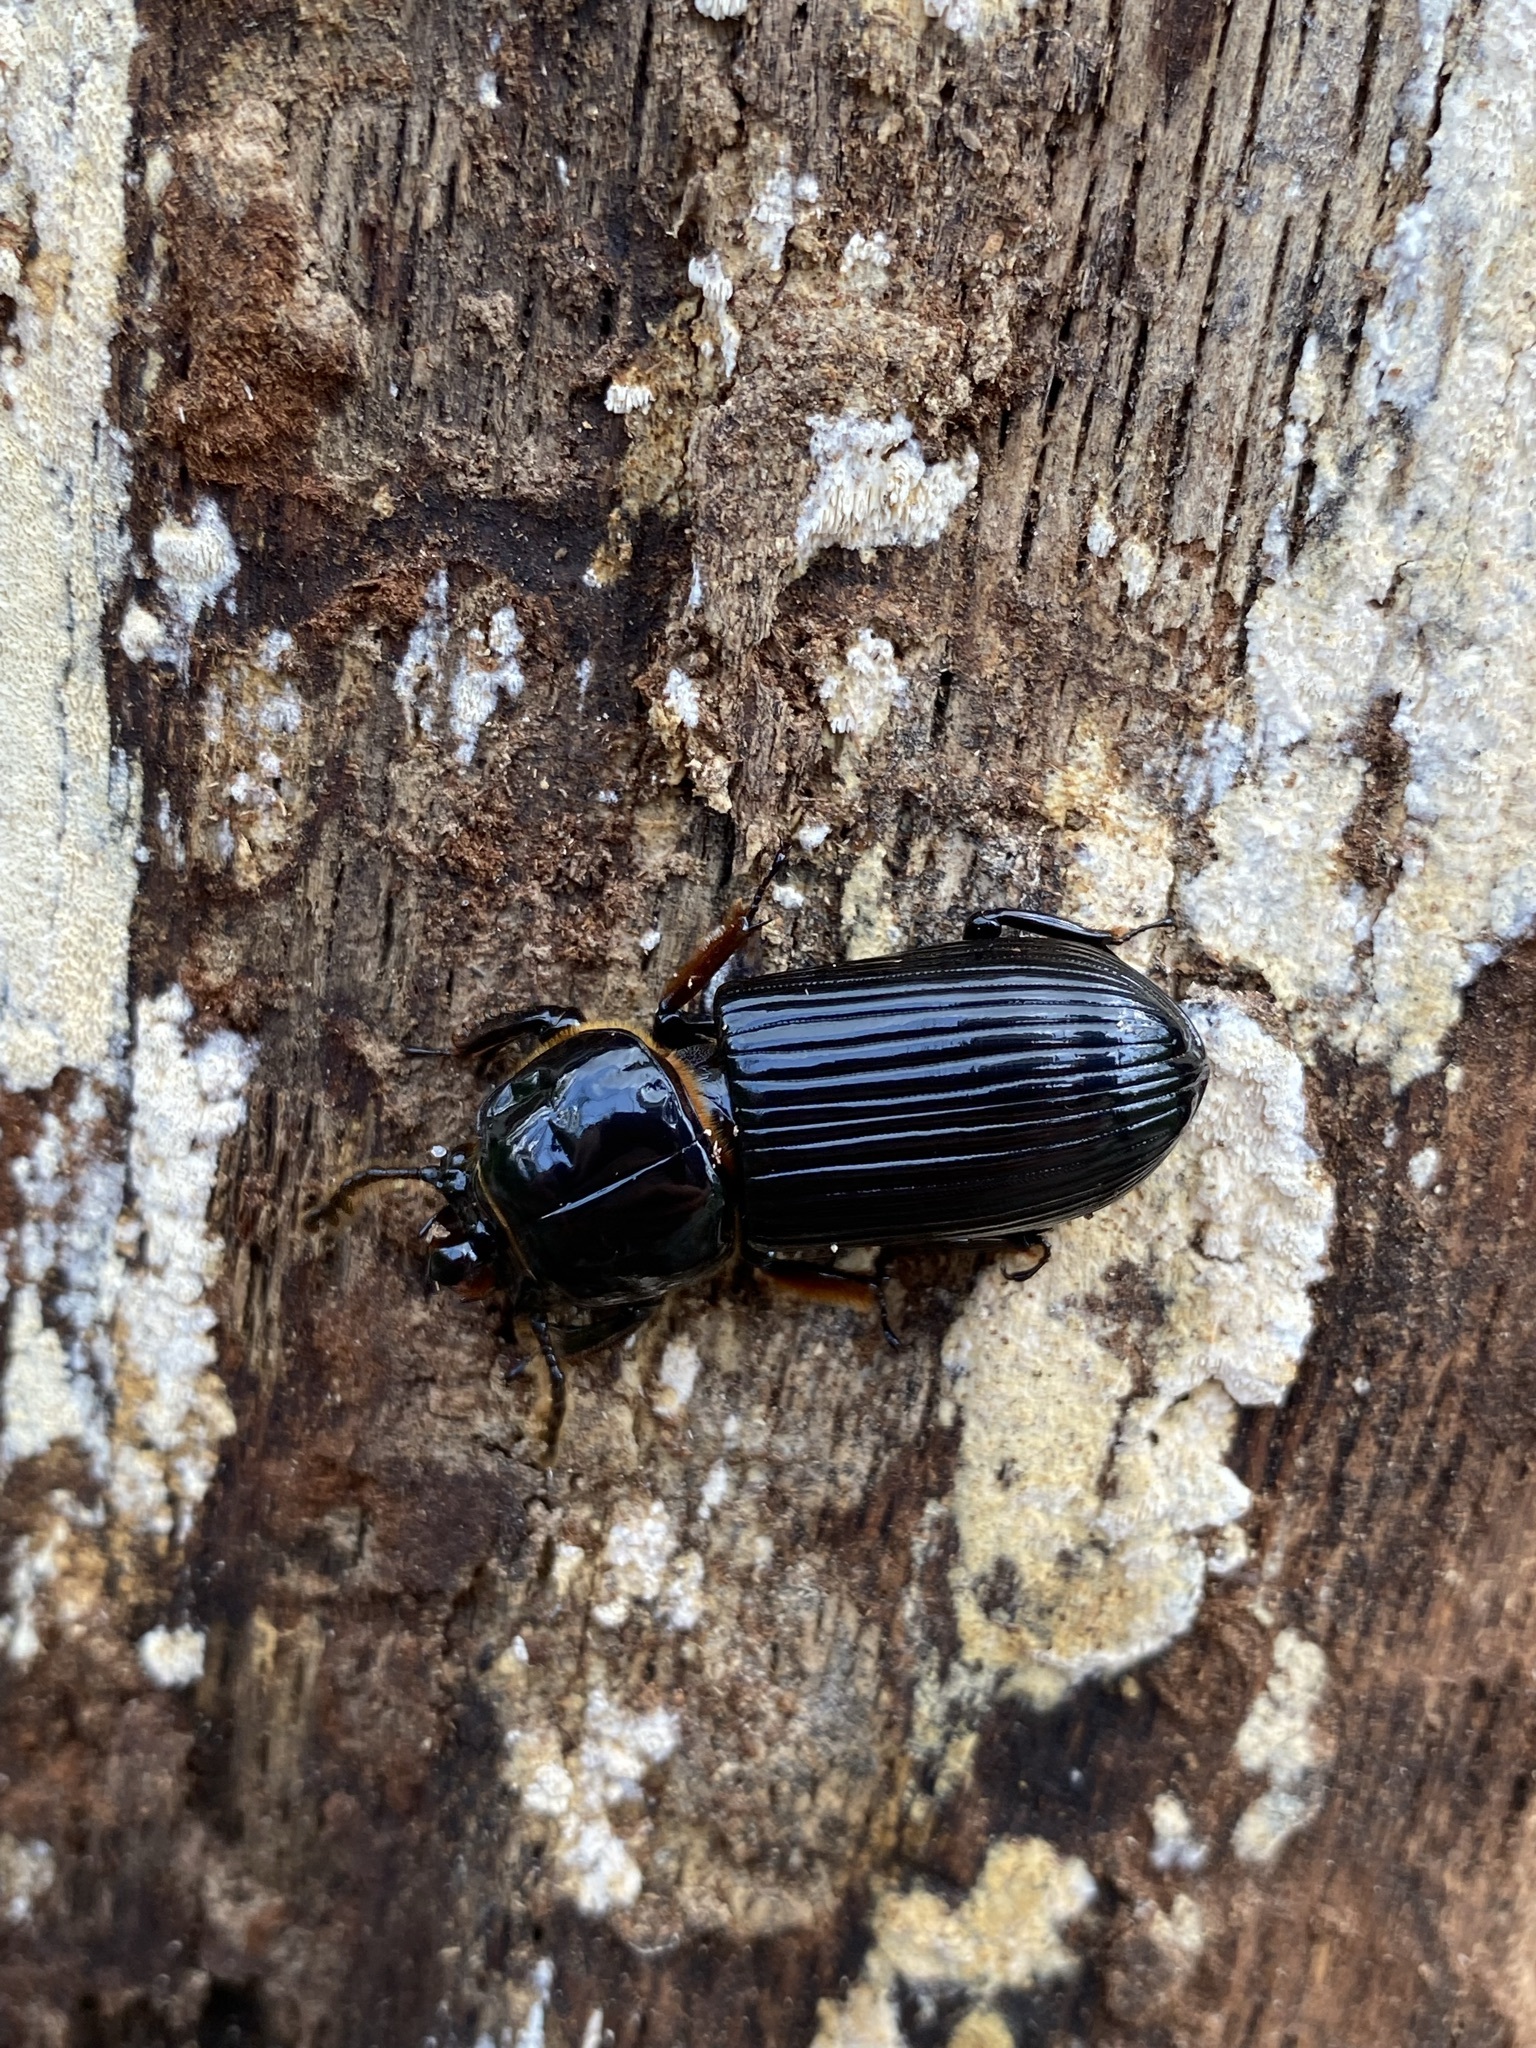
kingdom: Animalia
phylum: Arthropoda
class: Insecta
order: Coleoptera
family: Passalidae
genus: Odontotaenius
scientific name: Odontotaenius disjunctus
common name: Patent leather beetle
